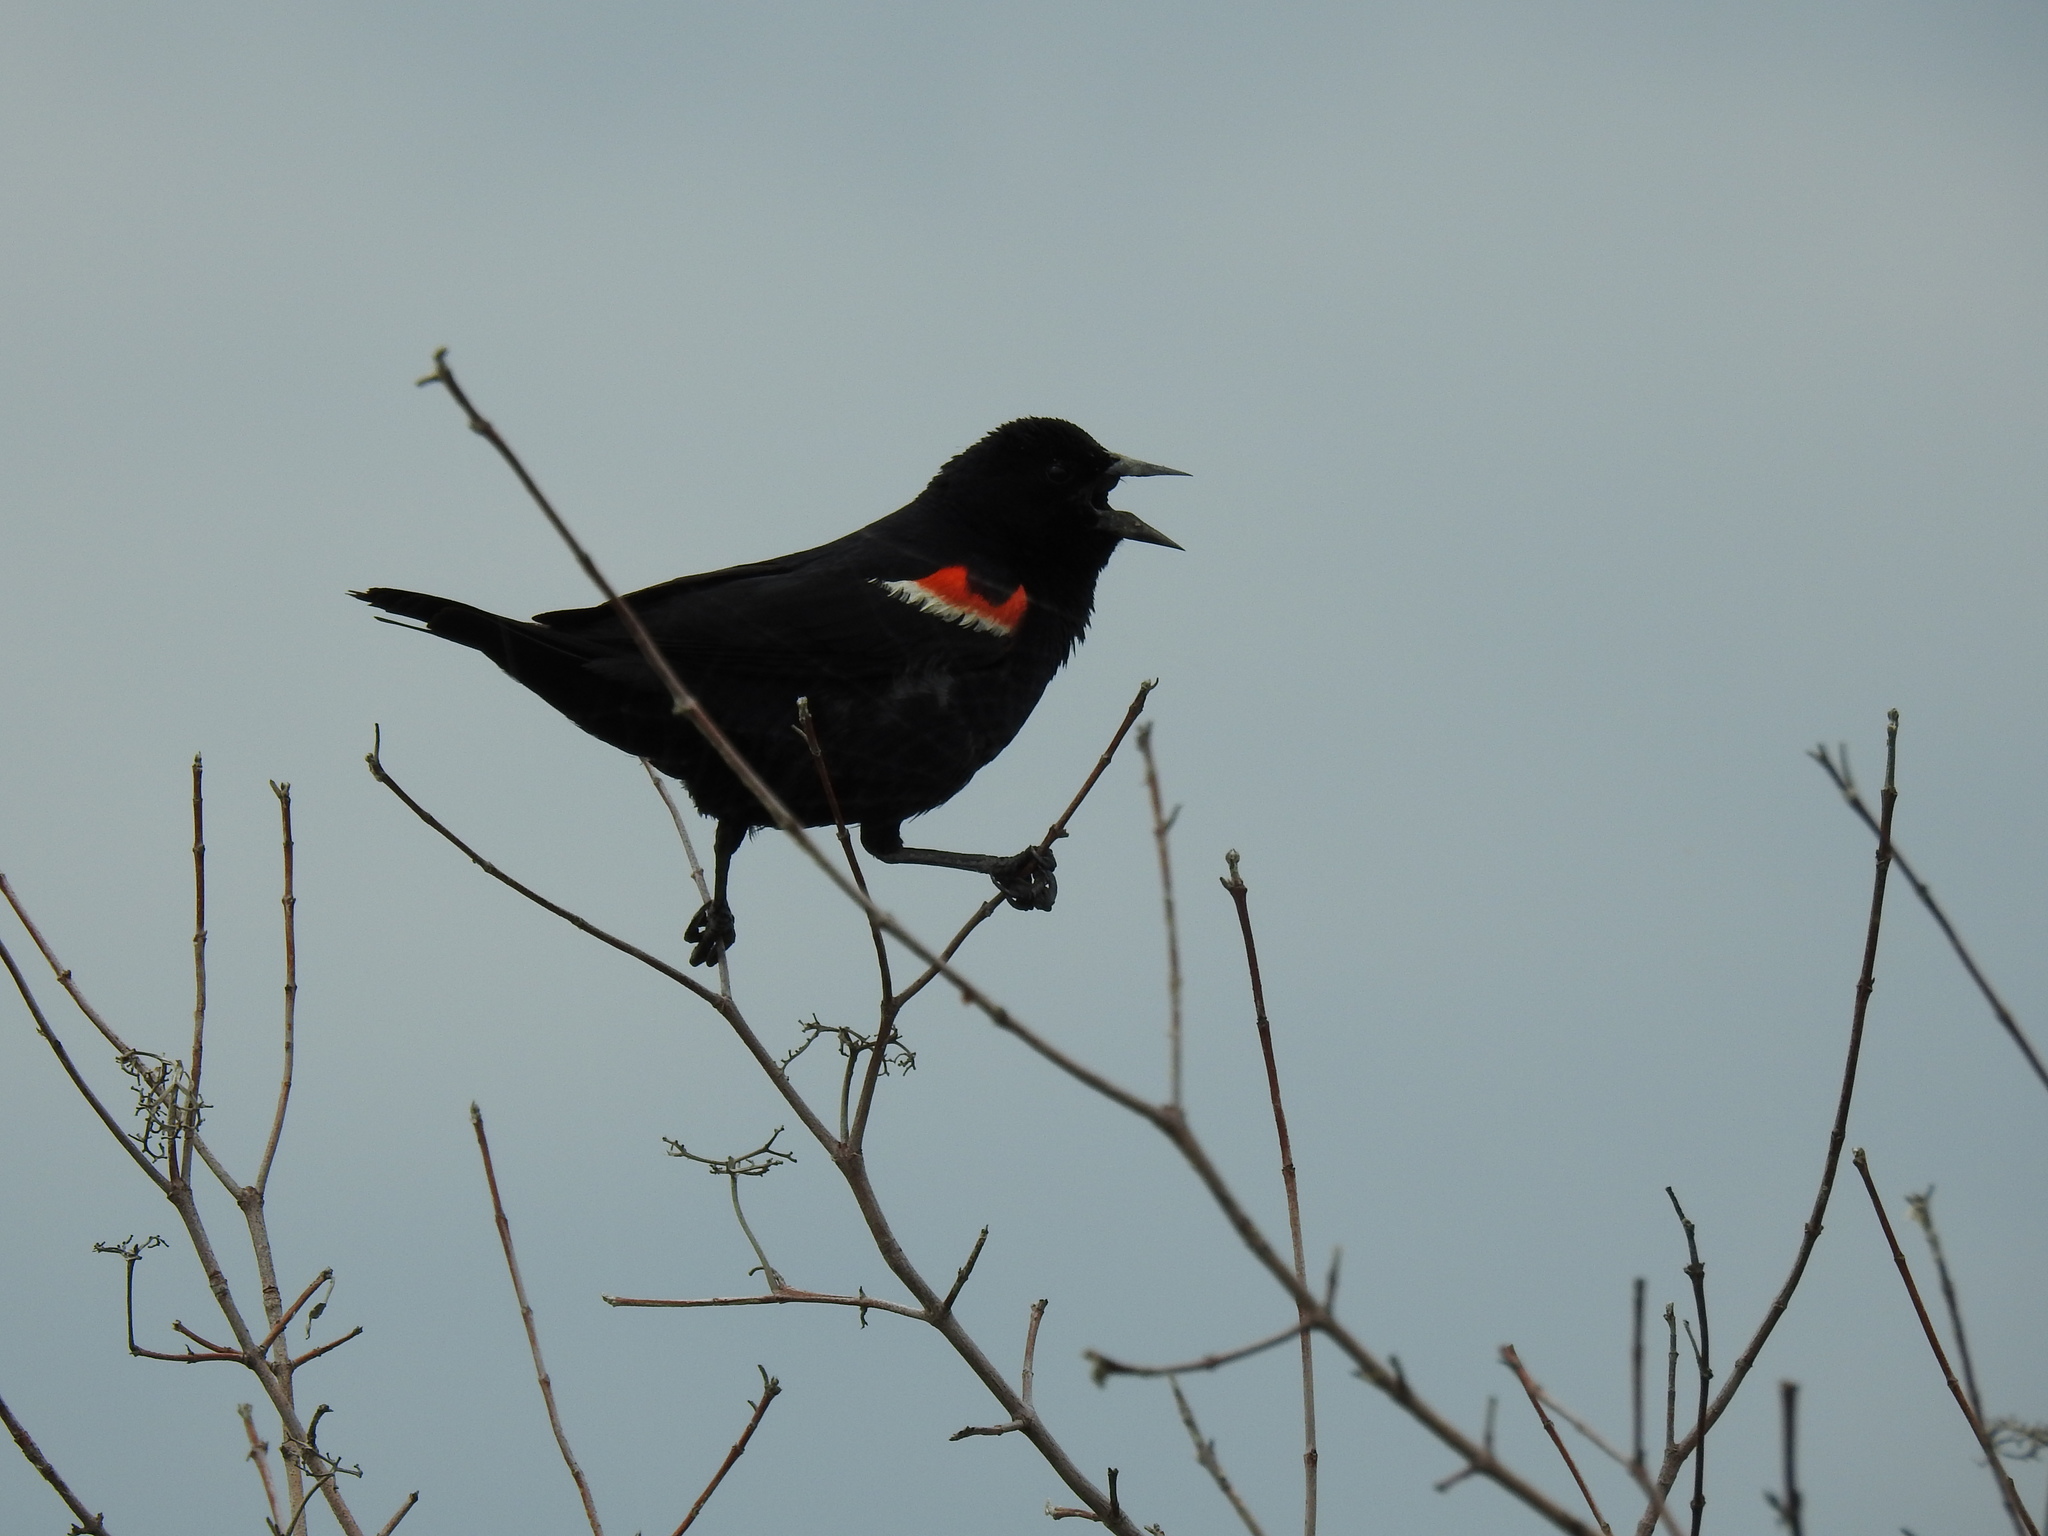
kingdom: Animalia
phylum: Chordata
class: Aves
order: Passeriformes
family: Icteridae
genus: Agelaius
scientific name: Agelaius phoeniceus
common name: Red-winged blackbird
